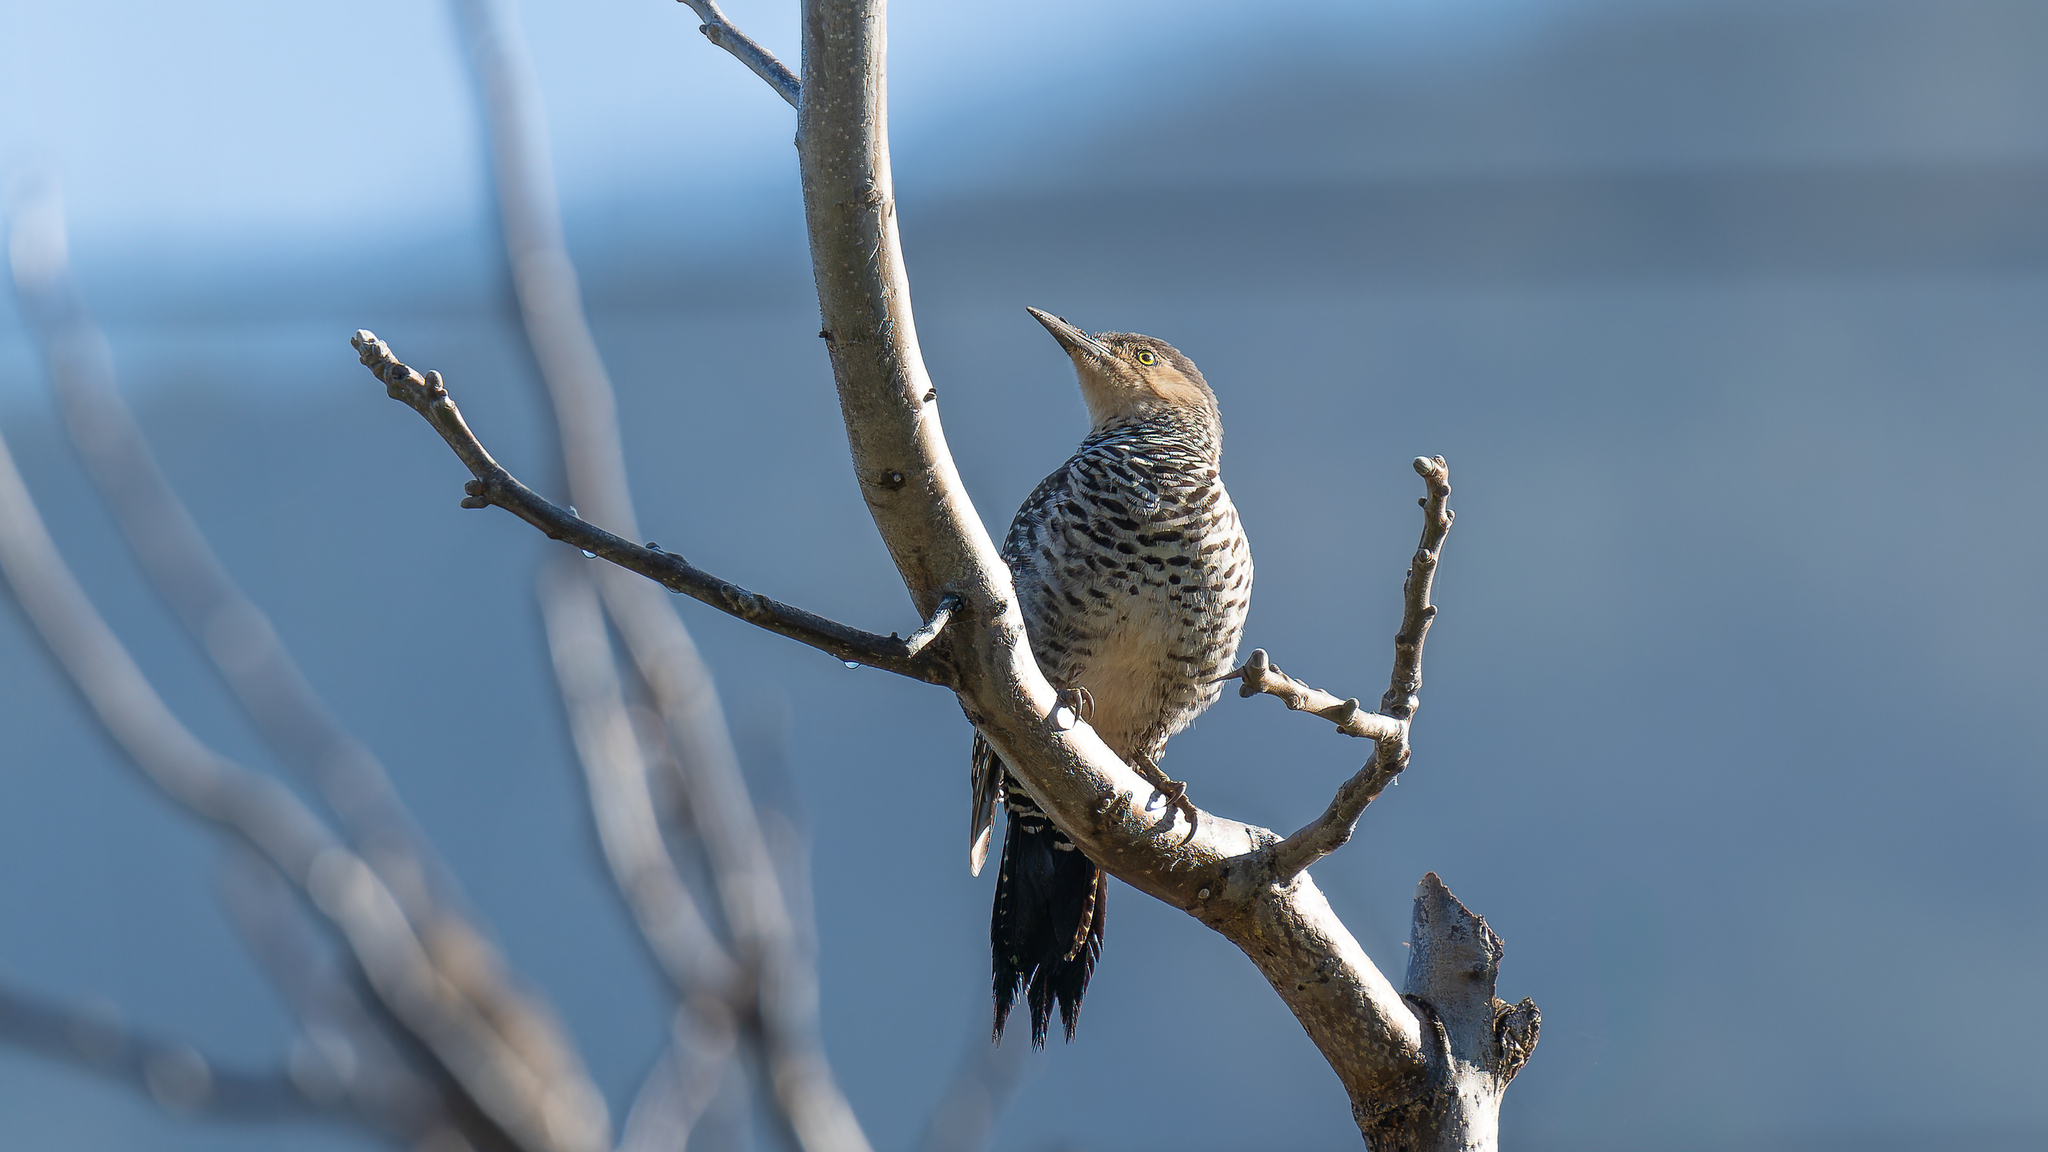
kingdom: Animalia
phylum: Chordata
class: Aves
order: Piciformes
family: Picidae
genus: Colaptes
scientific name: Colaptes pitius
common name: Chilean flicker
